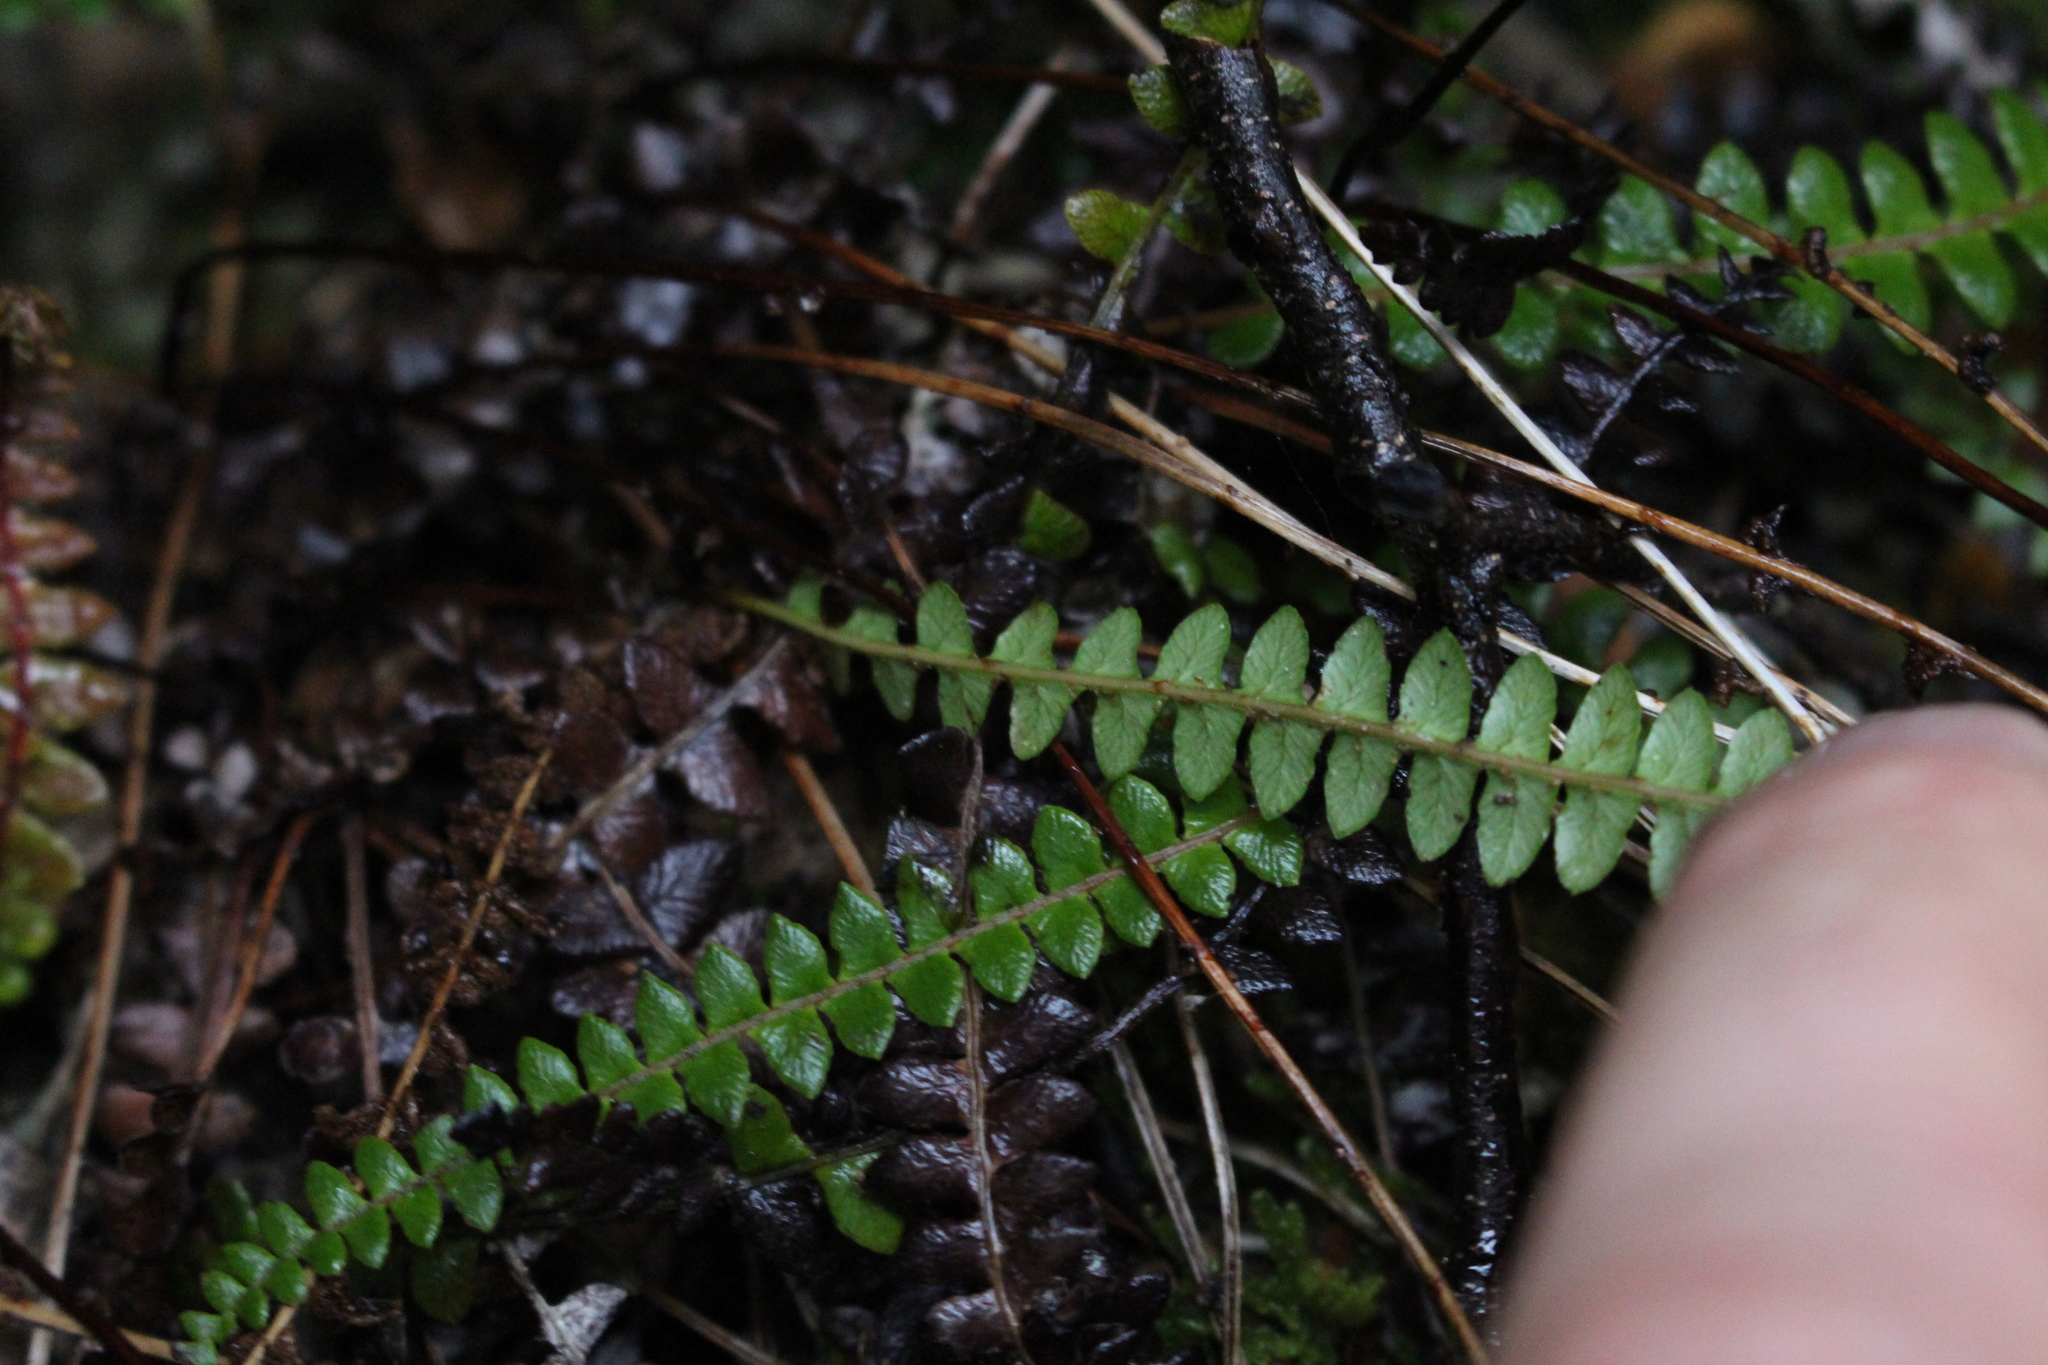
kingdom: Plantae
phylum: Tracheophyta
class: Polypodiopsida
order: Polypodiales
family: Blechnaceae
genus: Austroblechnum
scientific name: Austroblechnum penna-marina
